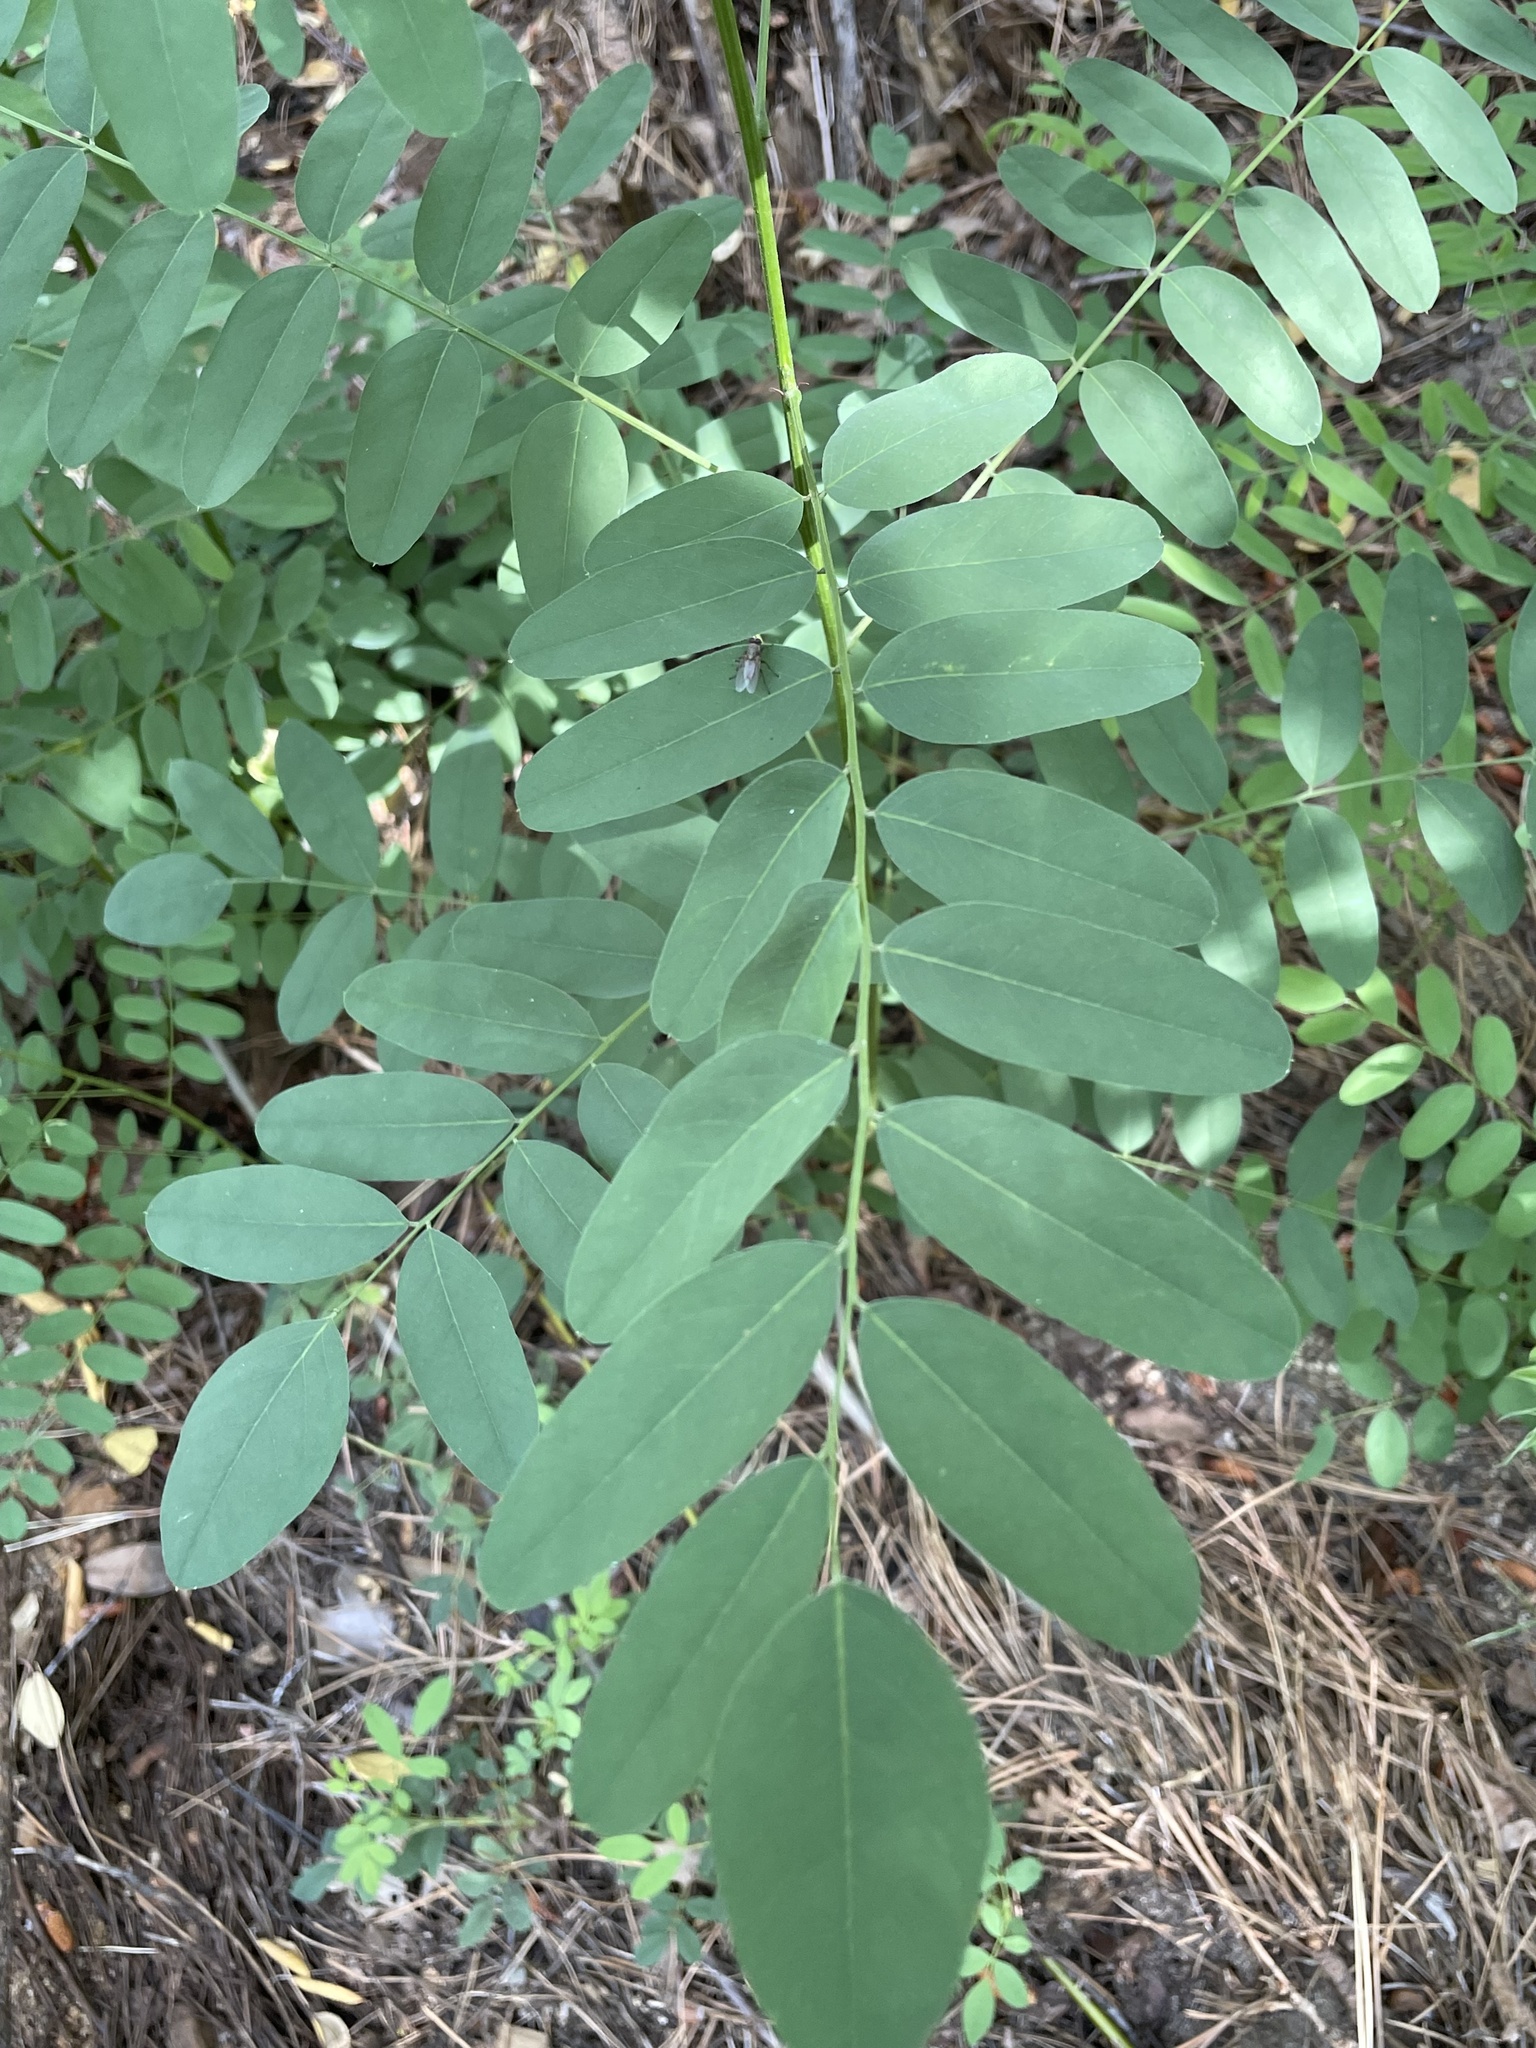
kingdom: Plantae
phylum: Tracheophyta
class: Magnoliopsida
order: Fabales
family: Fabaceae
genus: Robinia
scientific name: Robinia neomexicana
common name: New mexico locust
